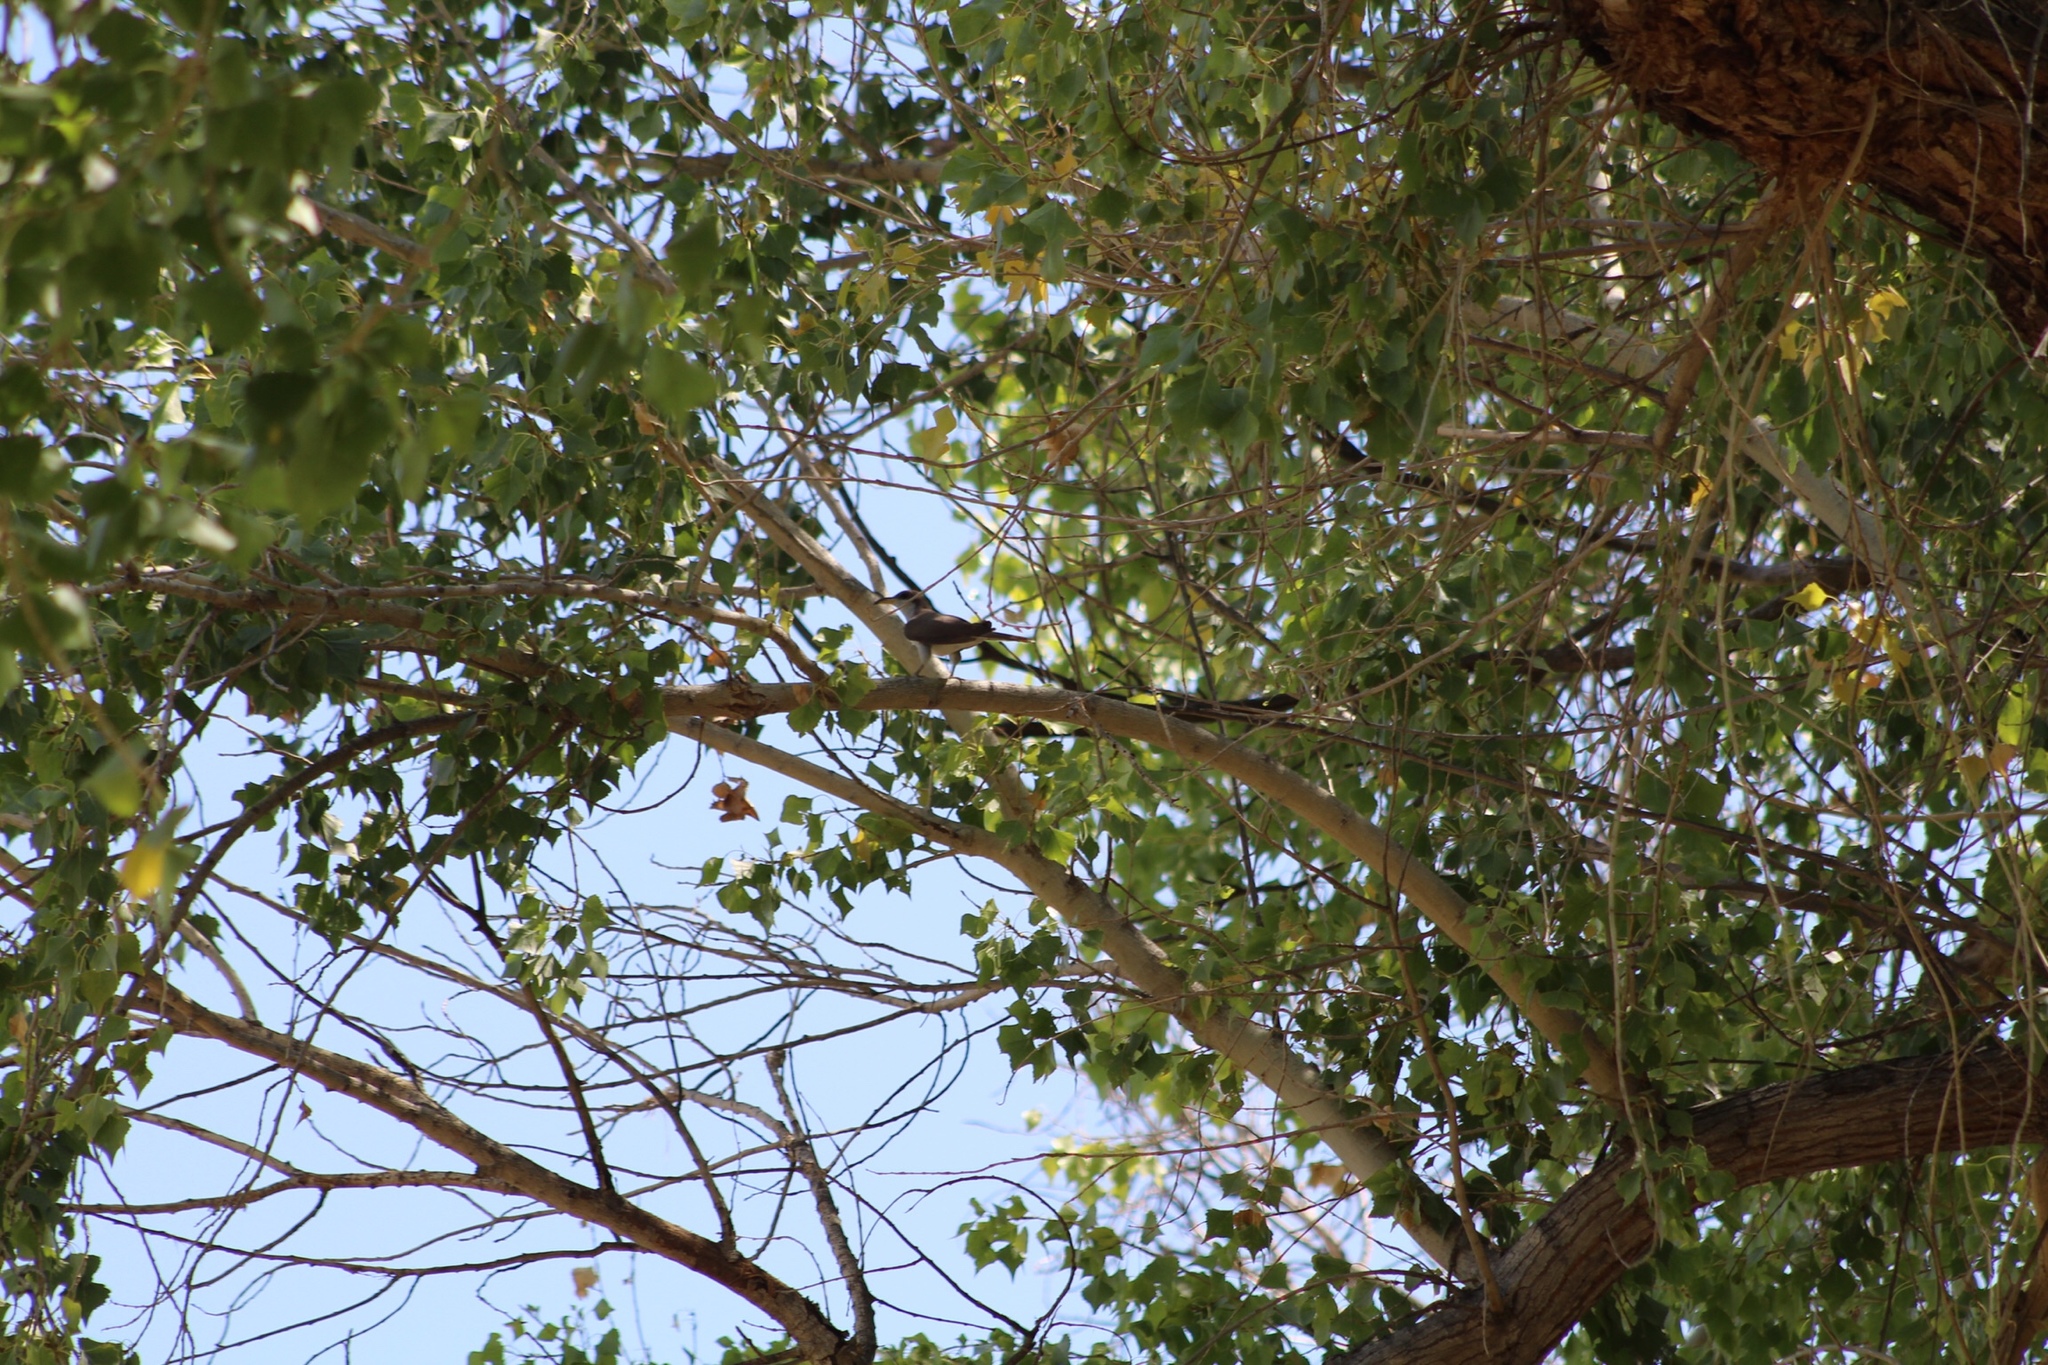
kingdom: Animalia
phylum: Chordata
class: Aves
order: Cuculiformes
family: Cuculidae
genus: Coccyzus
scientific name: Coccyzus americanus
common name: Yellow-billed cuckoo
